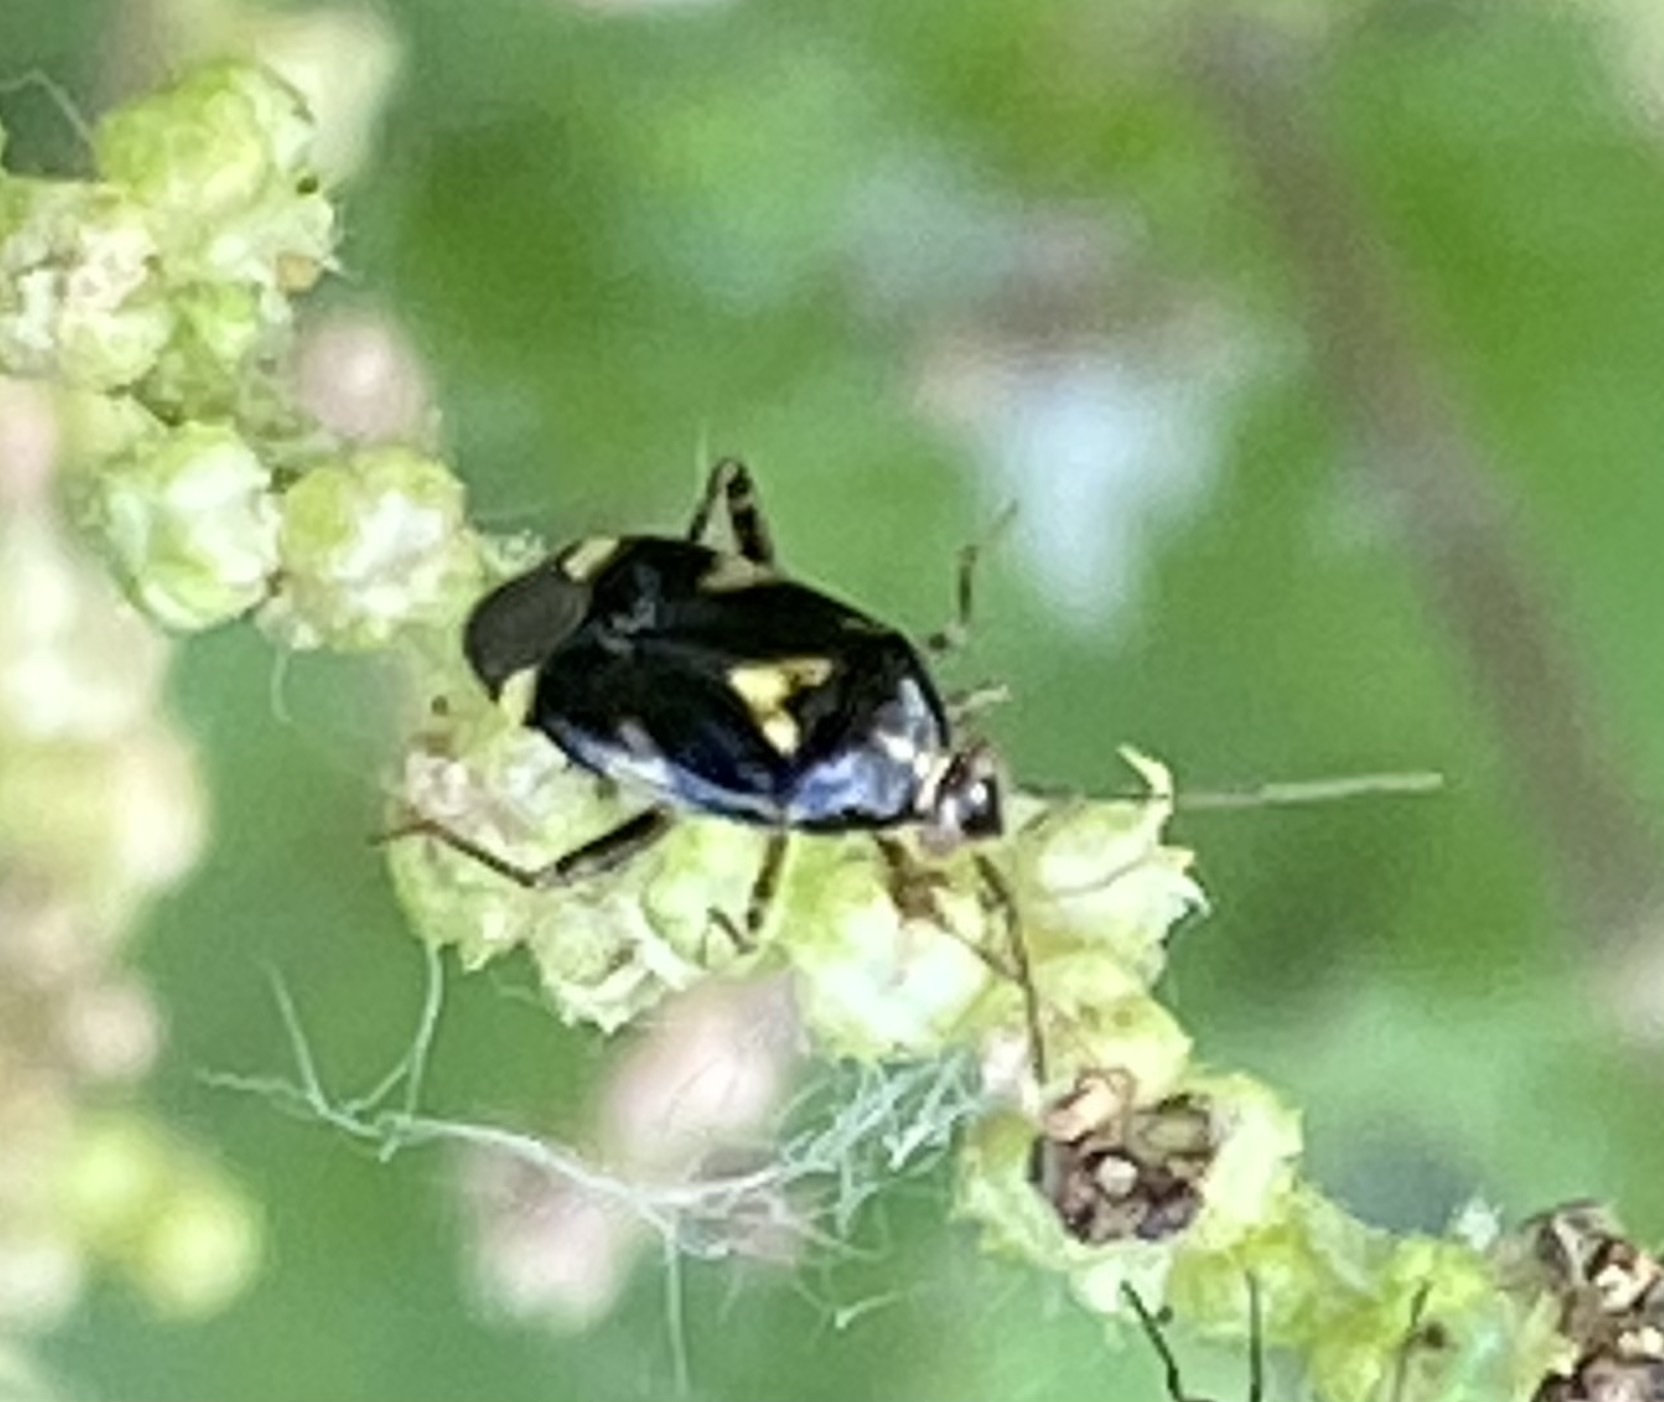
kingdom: Animalia
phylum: Arthropoda
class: Insecta
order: Hemiptera
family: Miridae
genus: Liocoris
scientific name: Liocoris tripustulatus
